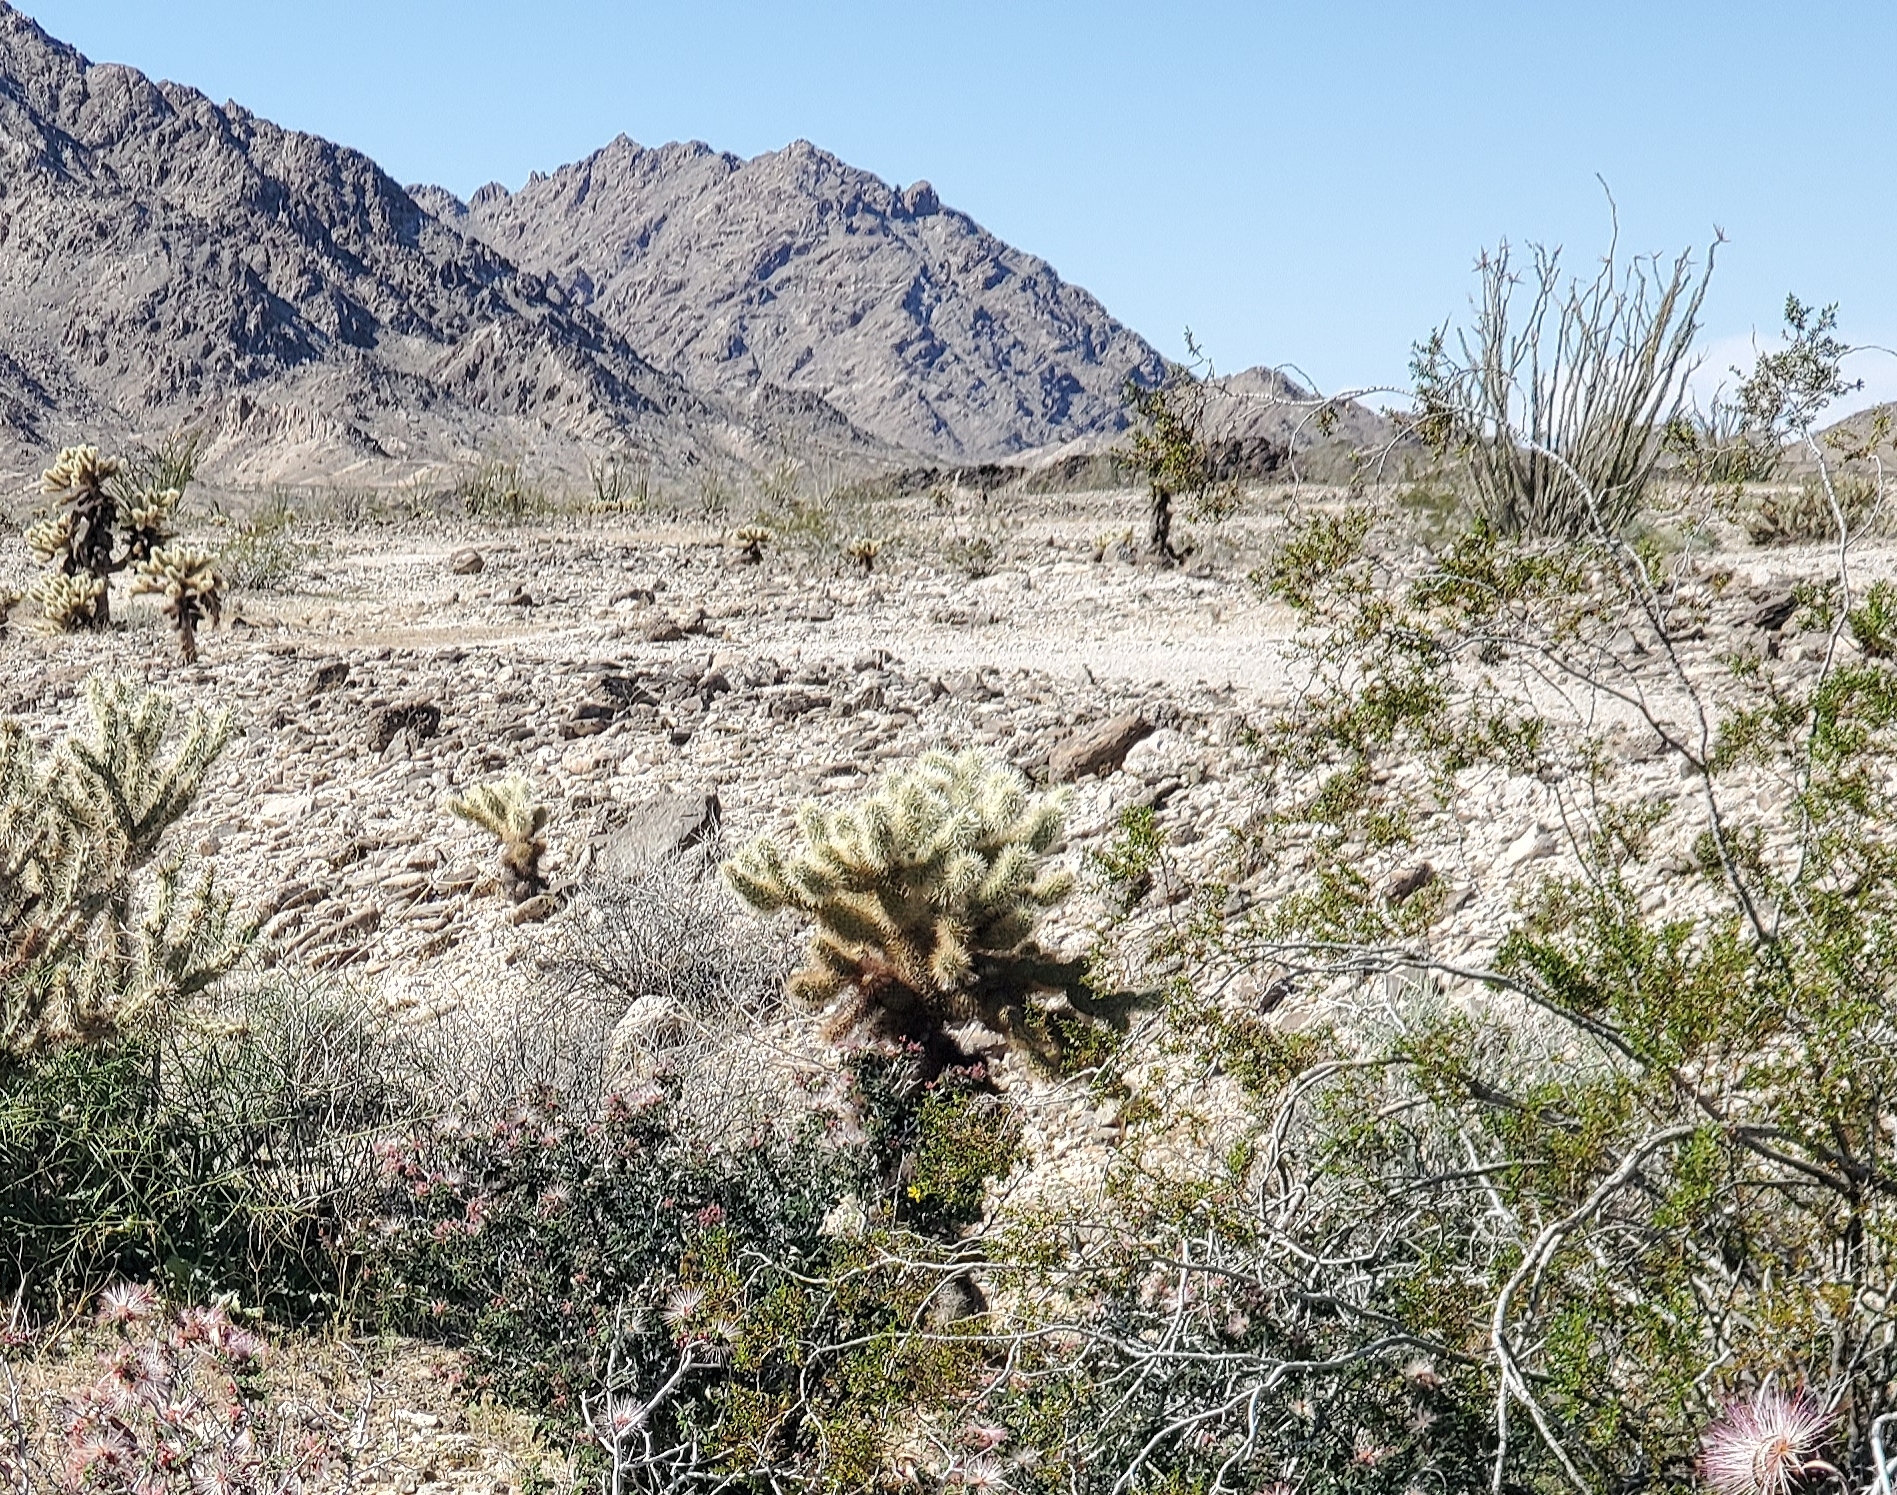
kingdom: Plantae
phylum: Tracheophyta
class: Magnoliopsida
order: Caryophyllales
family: Cactaceae
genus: Cylindropuntia
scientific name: Cylindropuntia fosbergii
